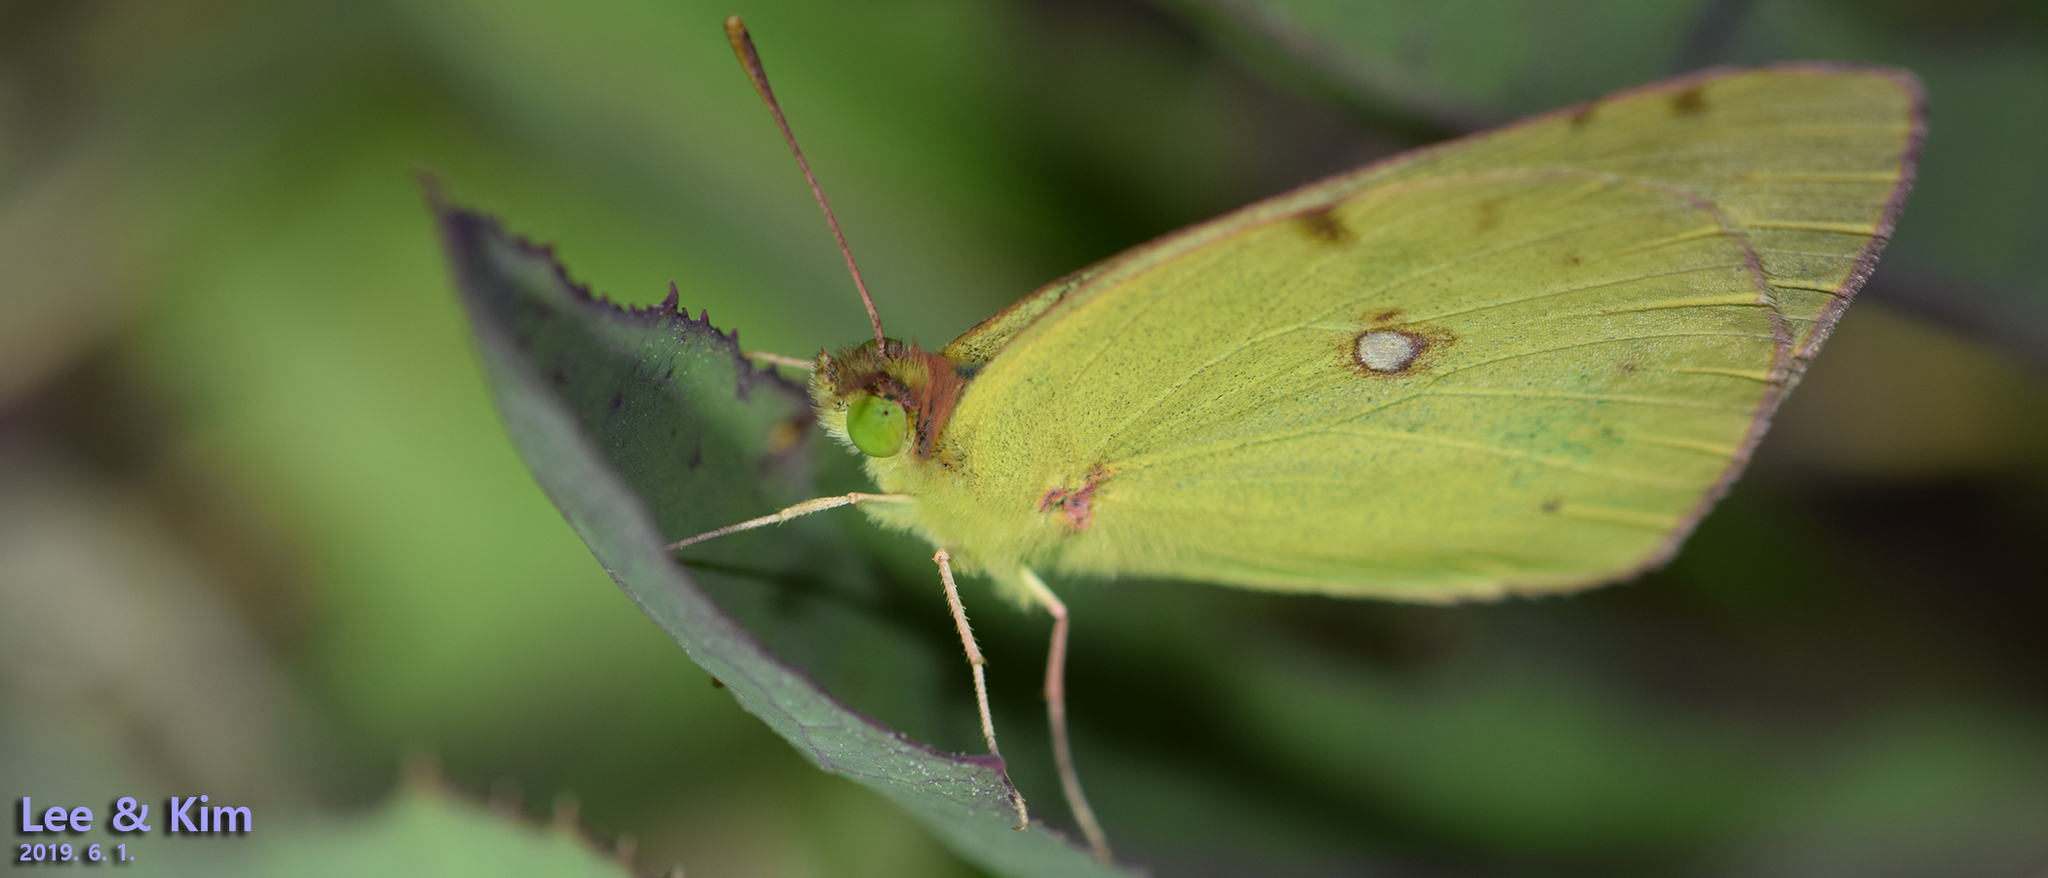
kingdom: Animalia
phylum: Arthropoda
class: Insecta
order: Lepidoptera
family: Pieridae
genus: Colias
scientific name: Colias poliographus
